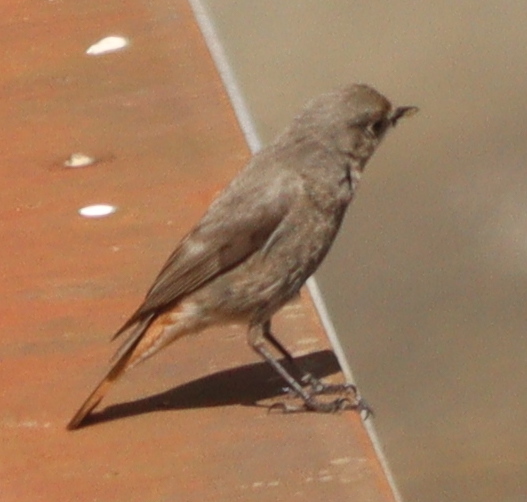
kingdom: Animalia
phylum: Chordata
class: Aves
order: Passeriformes
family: Muscicapidae
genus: Phoenicurus
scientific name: Phoenicurus ochruros
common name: Black redstart
